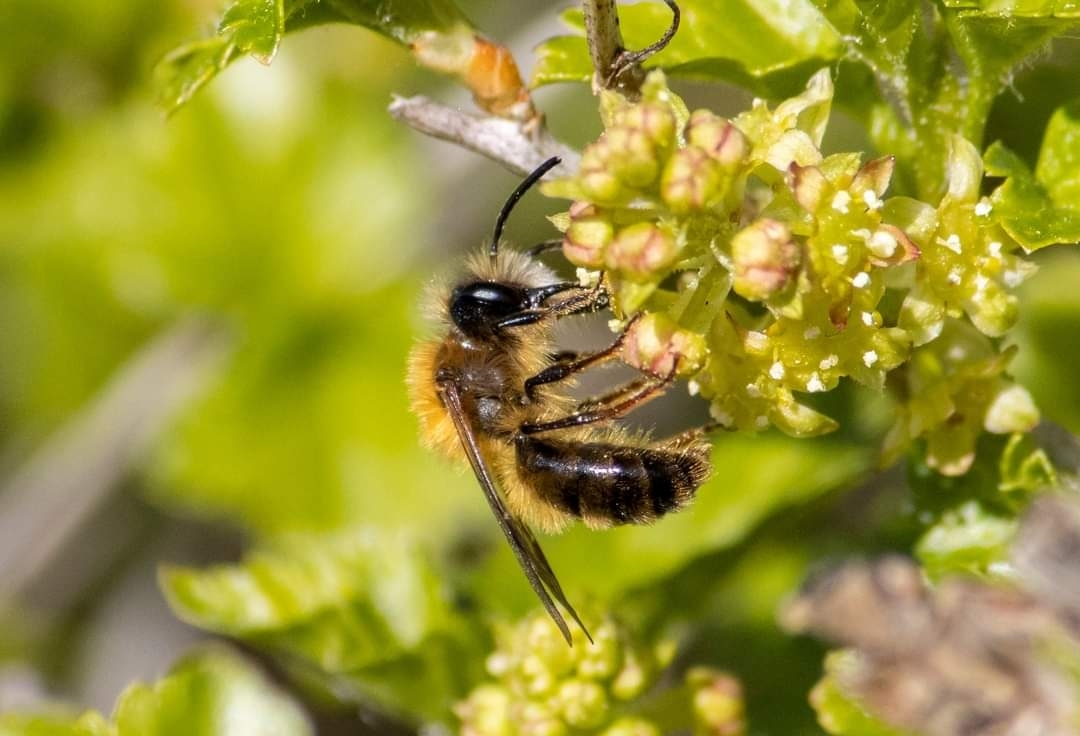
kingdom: Animalia
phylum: Arthropoda
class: Insecta
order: Hymenoptera
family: Andrenidae
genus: Andrena
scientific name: Andrena fulva
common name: Tawny mining bee
